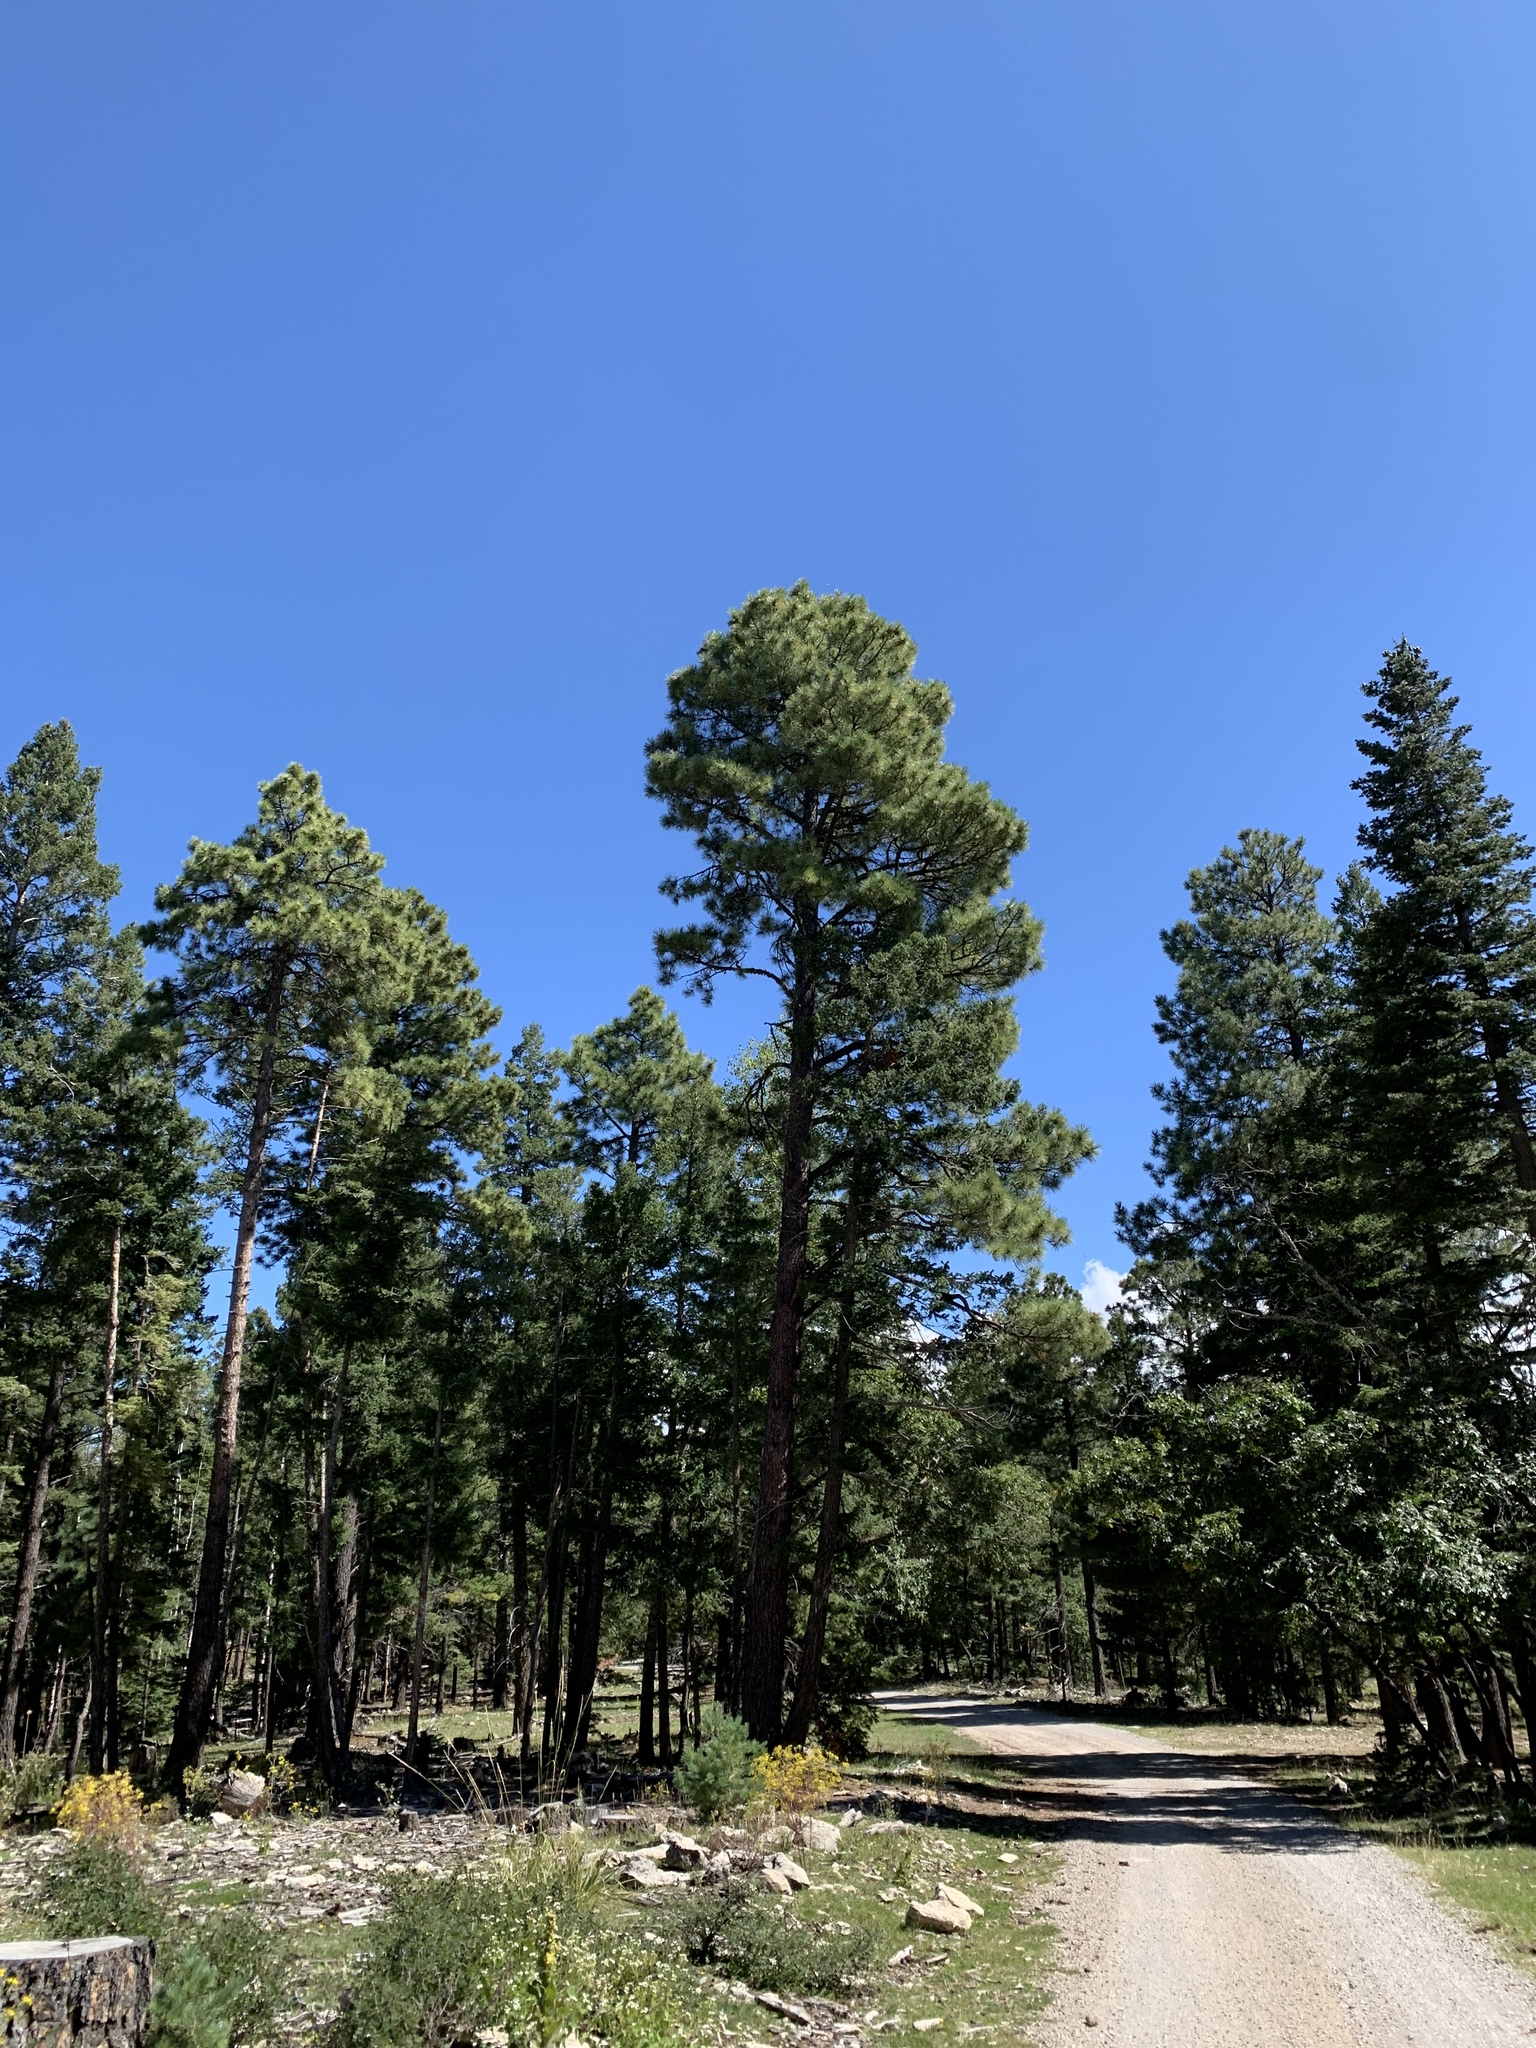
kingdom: Plantae
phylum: Tracheophyta
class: Pinopsida
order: Pinales
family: Pinaceae
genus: Pinus
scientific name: Pinus ponderosa
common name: Western yellow-pine
